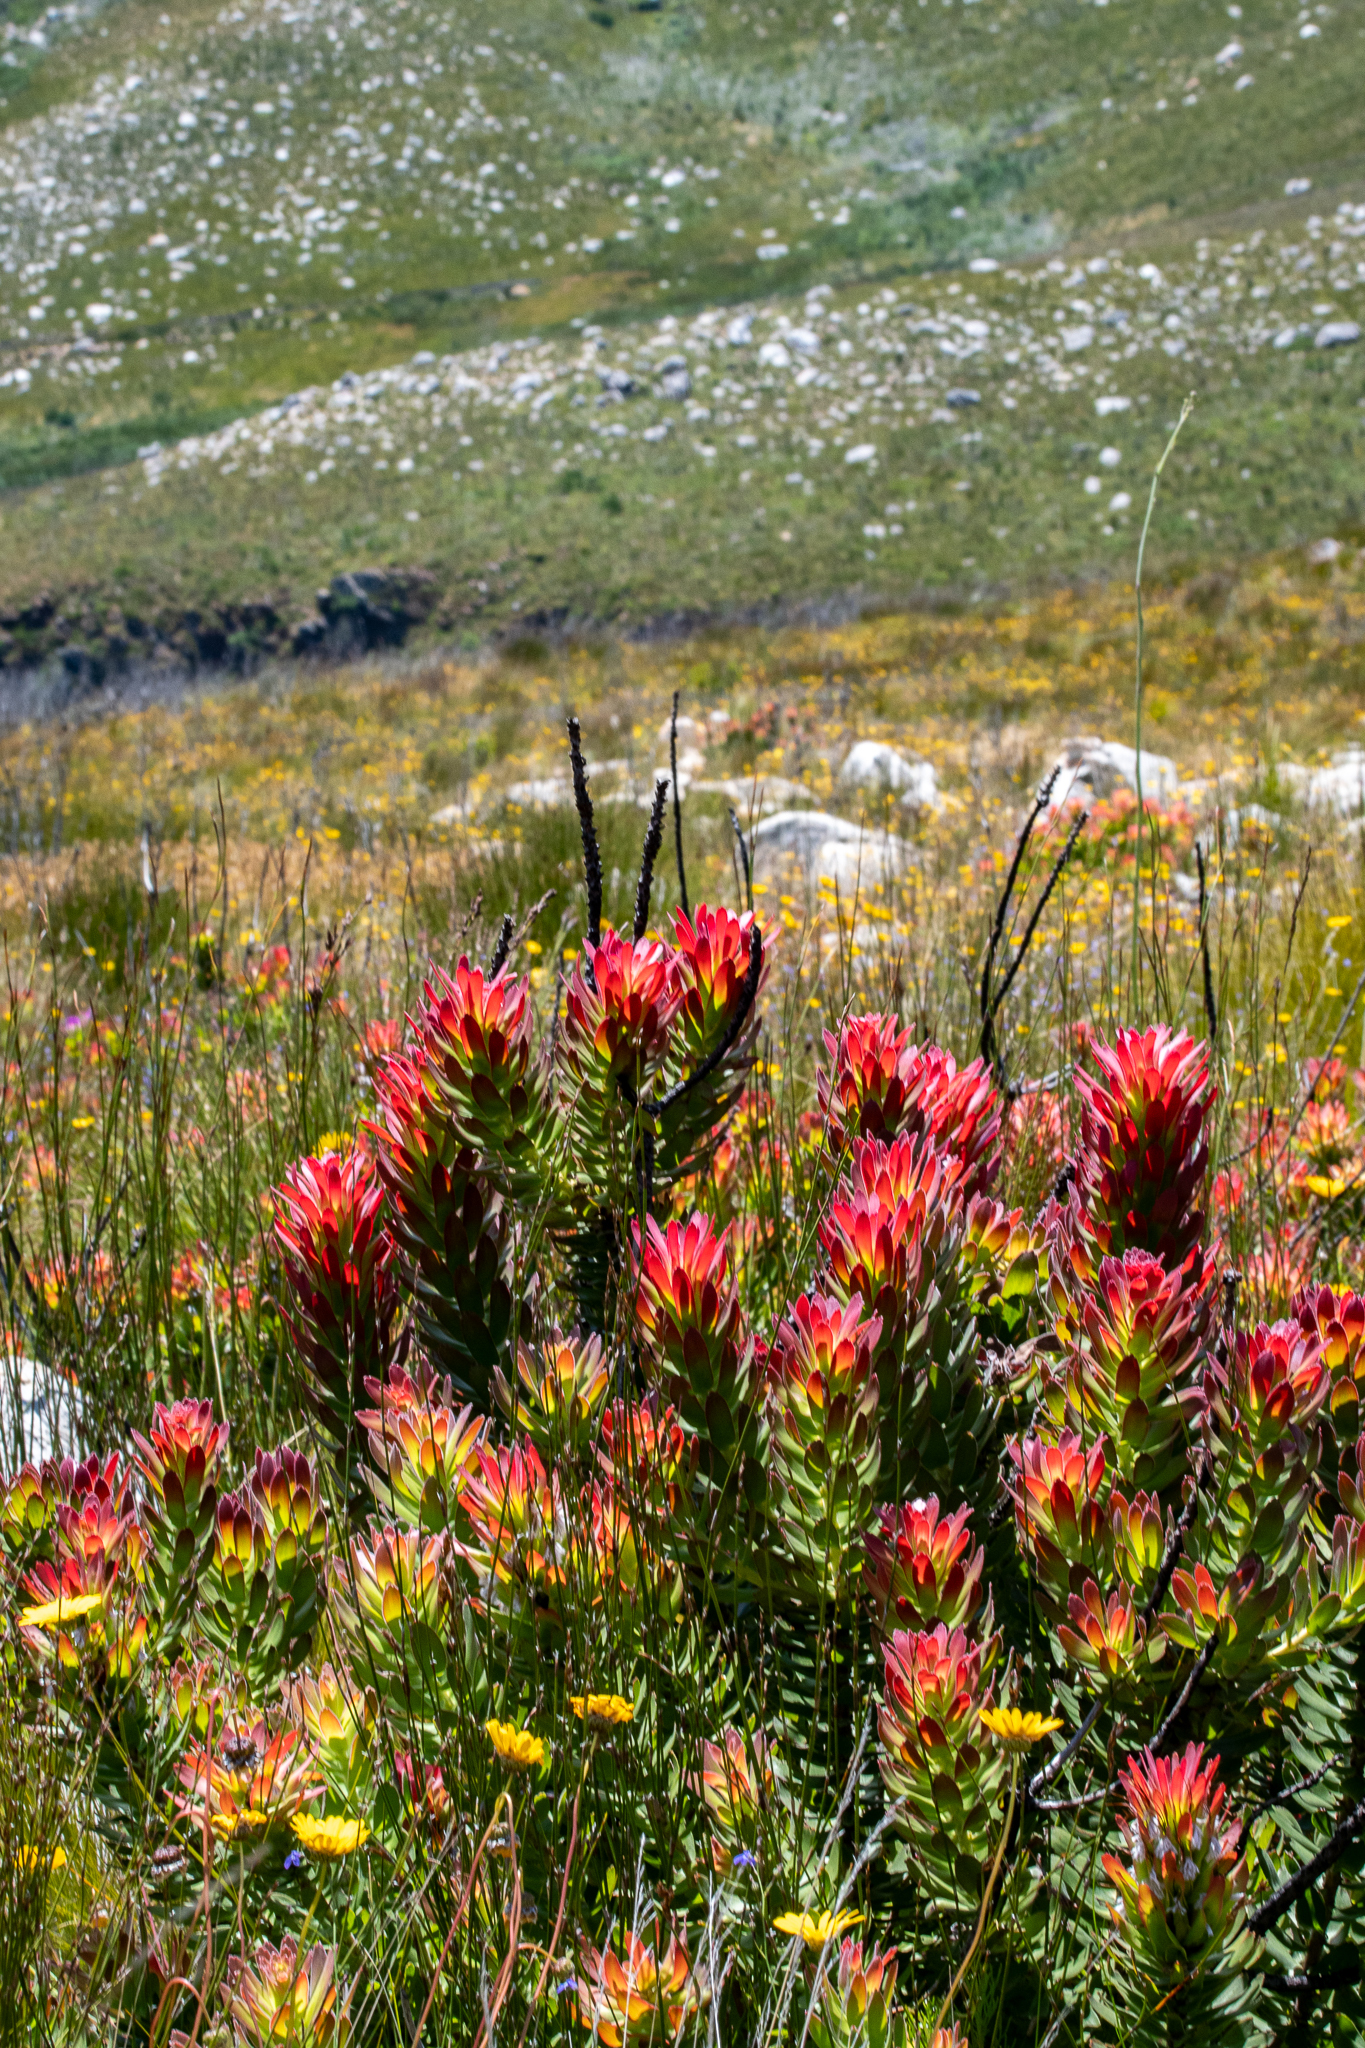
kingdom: Plantae
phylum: Tracheophyta
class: Magnoliopsida
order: Proteales
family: Proteaceae
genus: Mimetes
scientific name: Mimetes cucullatus
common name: Common pagoda
